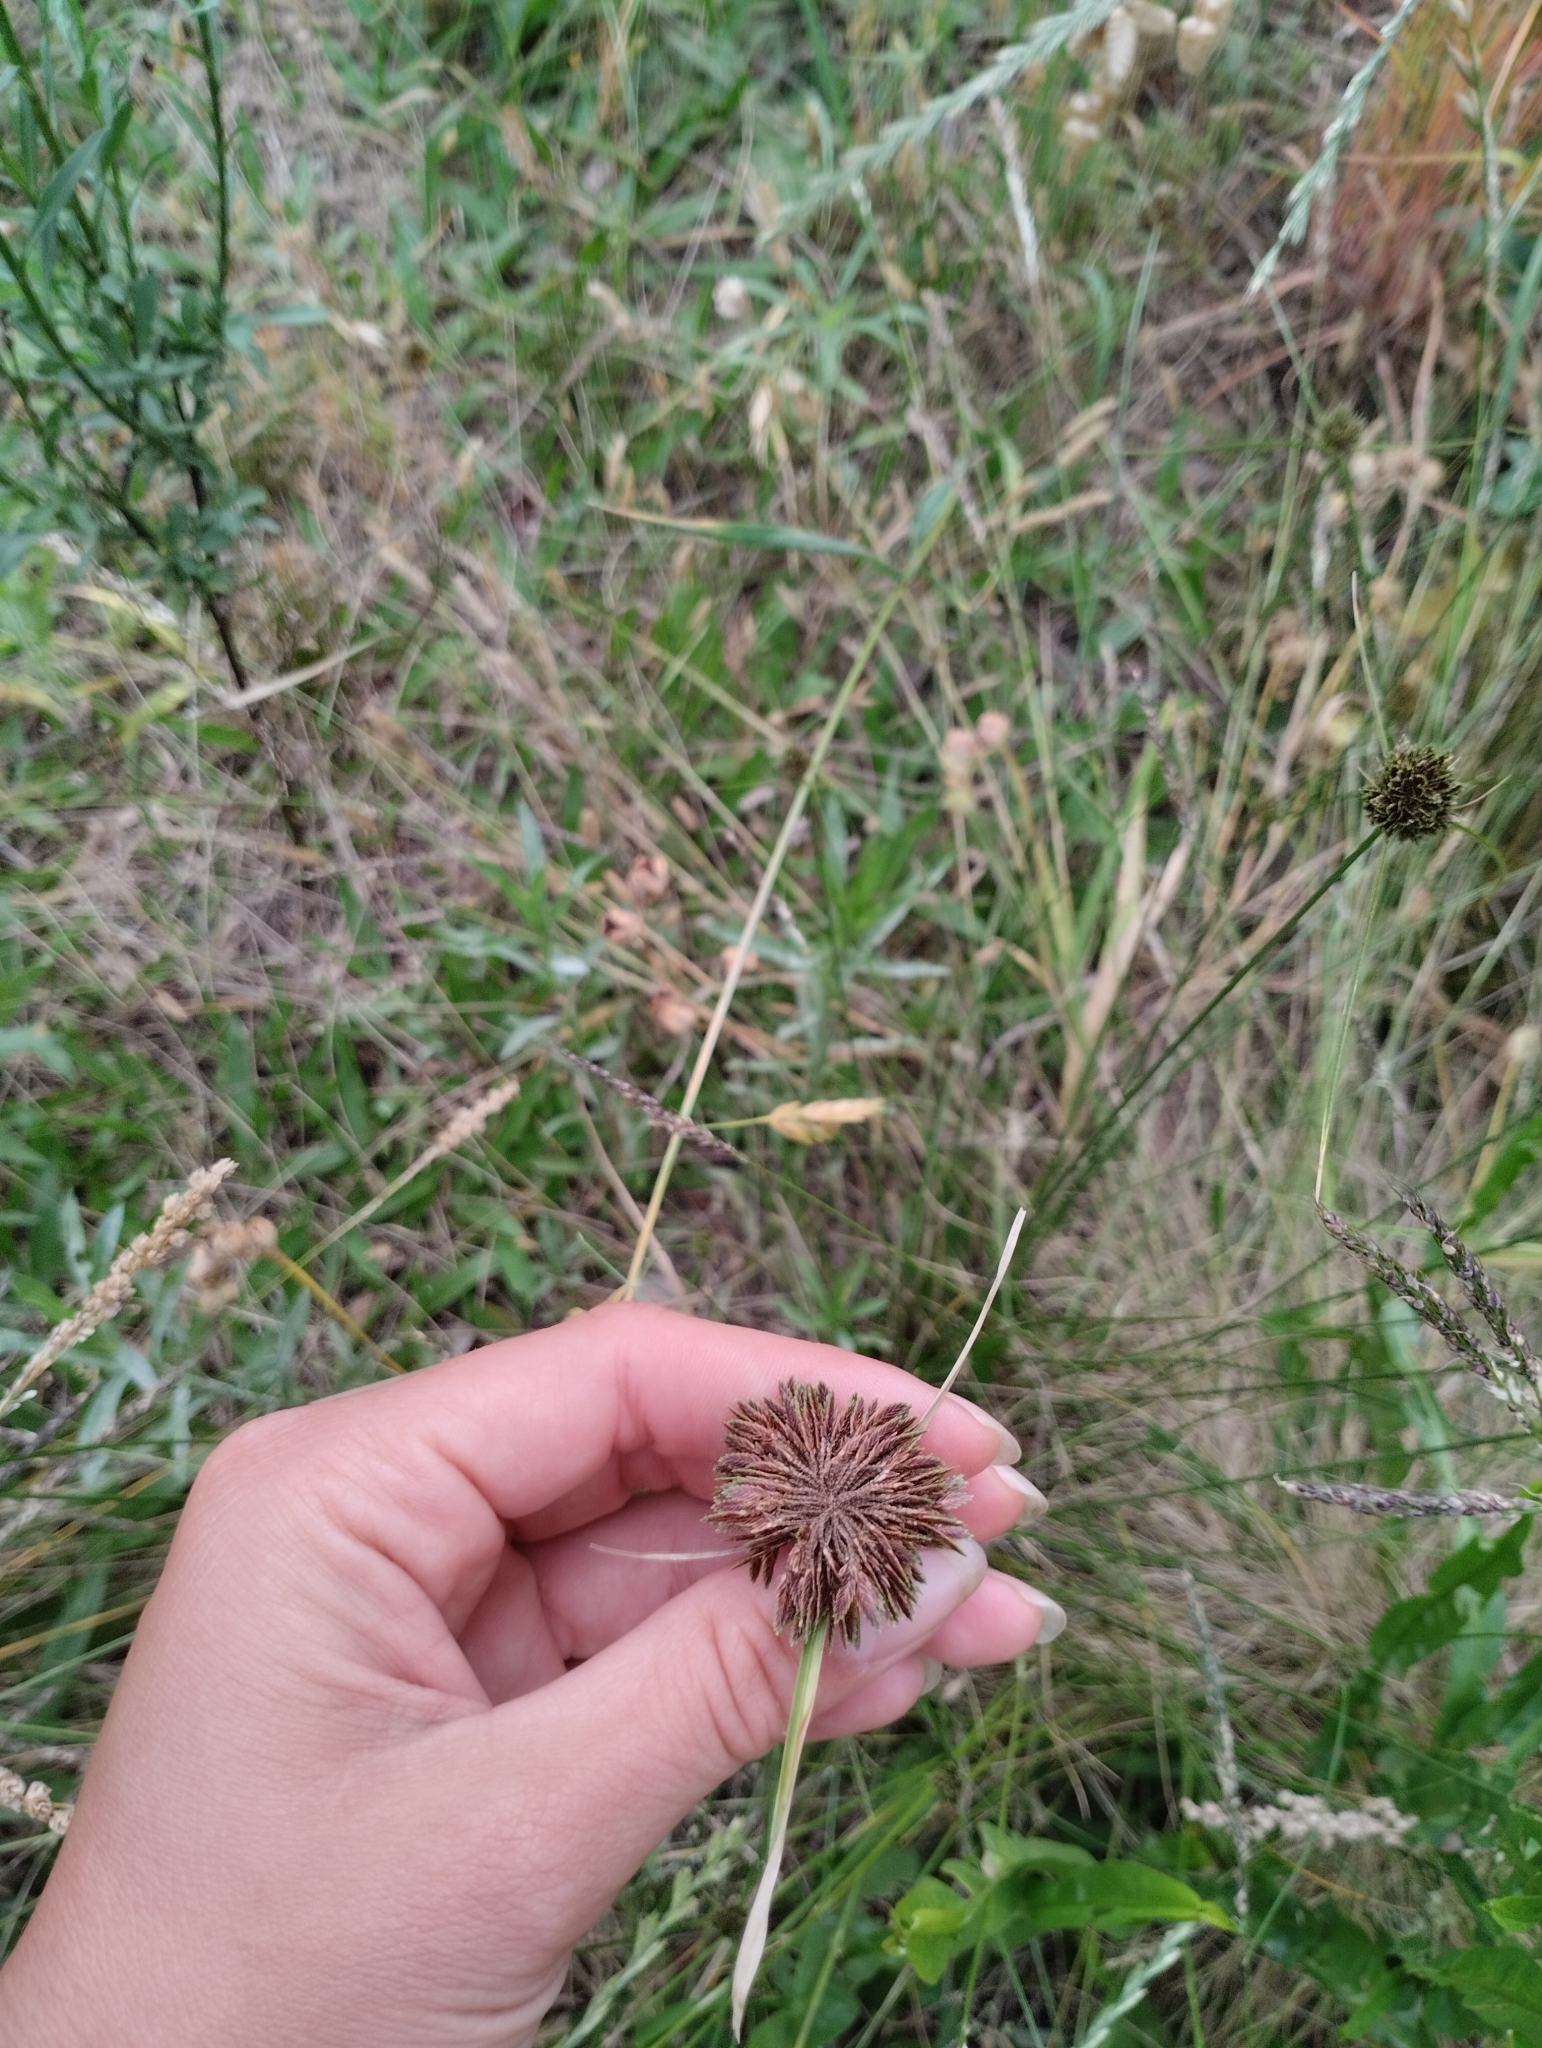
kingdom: Plantae
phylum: Tracheophyta
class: Liliopsida
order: Poales
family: Cyperaceae
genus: Cyperus
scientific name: Cyperus reflexus
